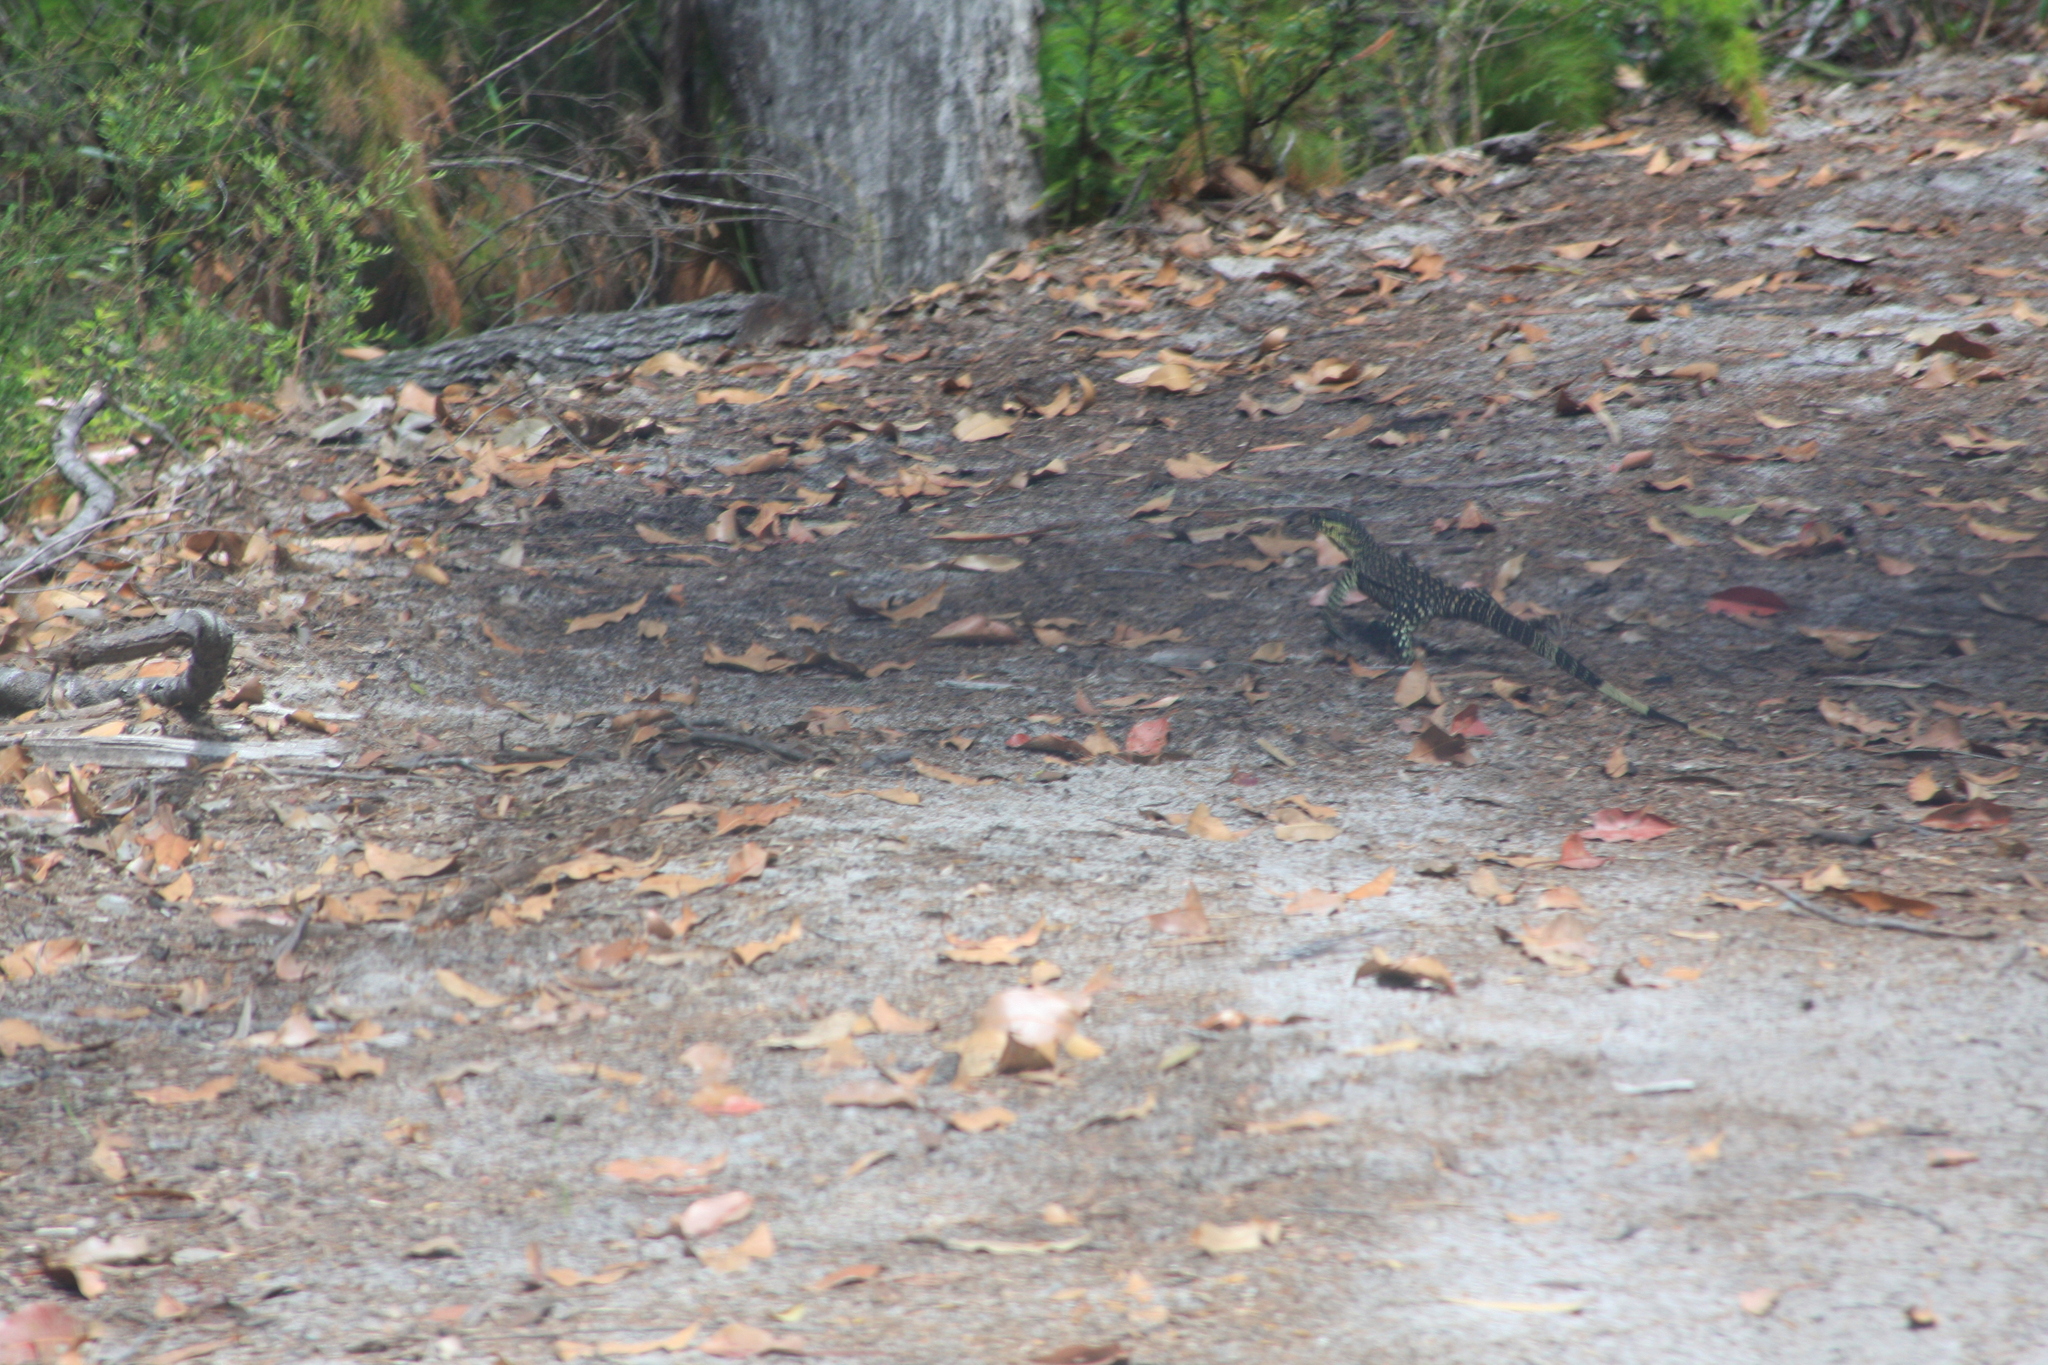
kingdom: Animalia
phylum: Chordata
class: Squamata
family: Varanidae
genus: Varanus
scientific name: Varanus varius
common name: Lace monitor
